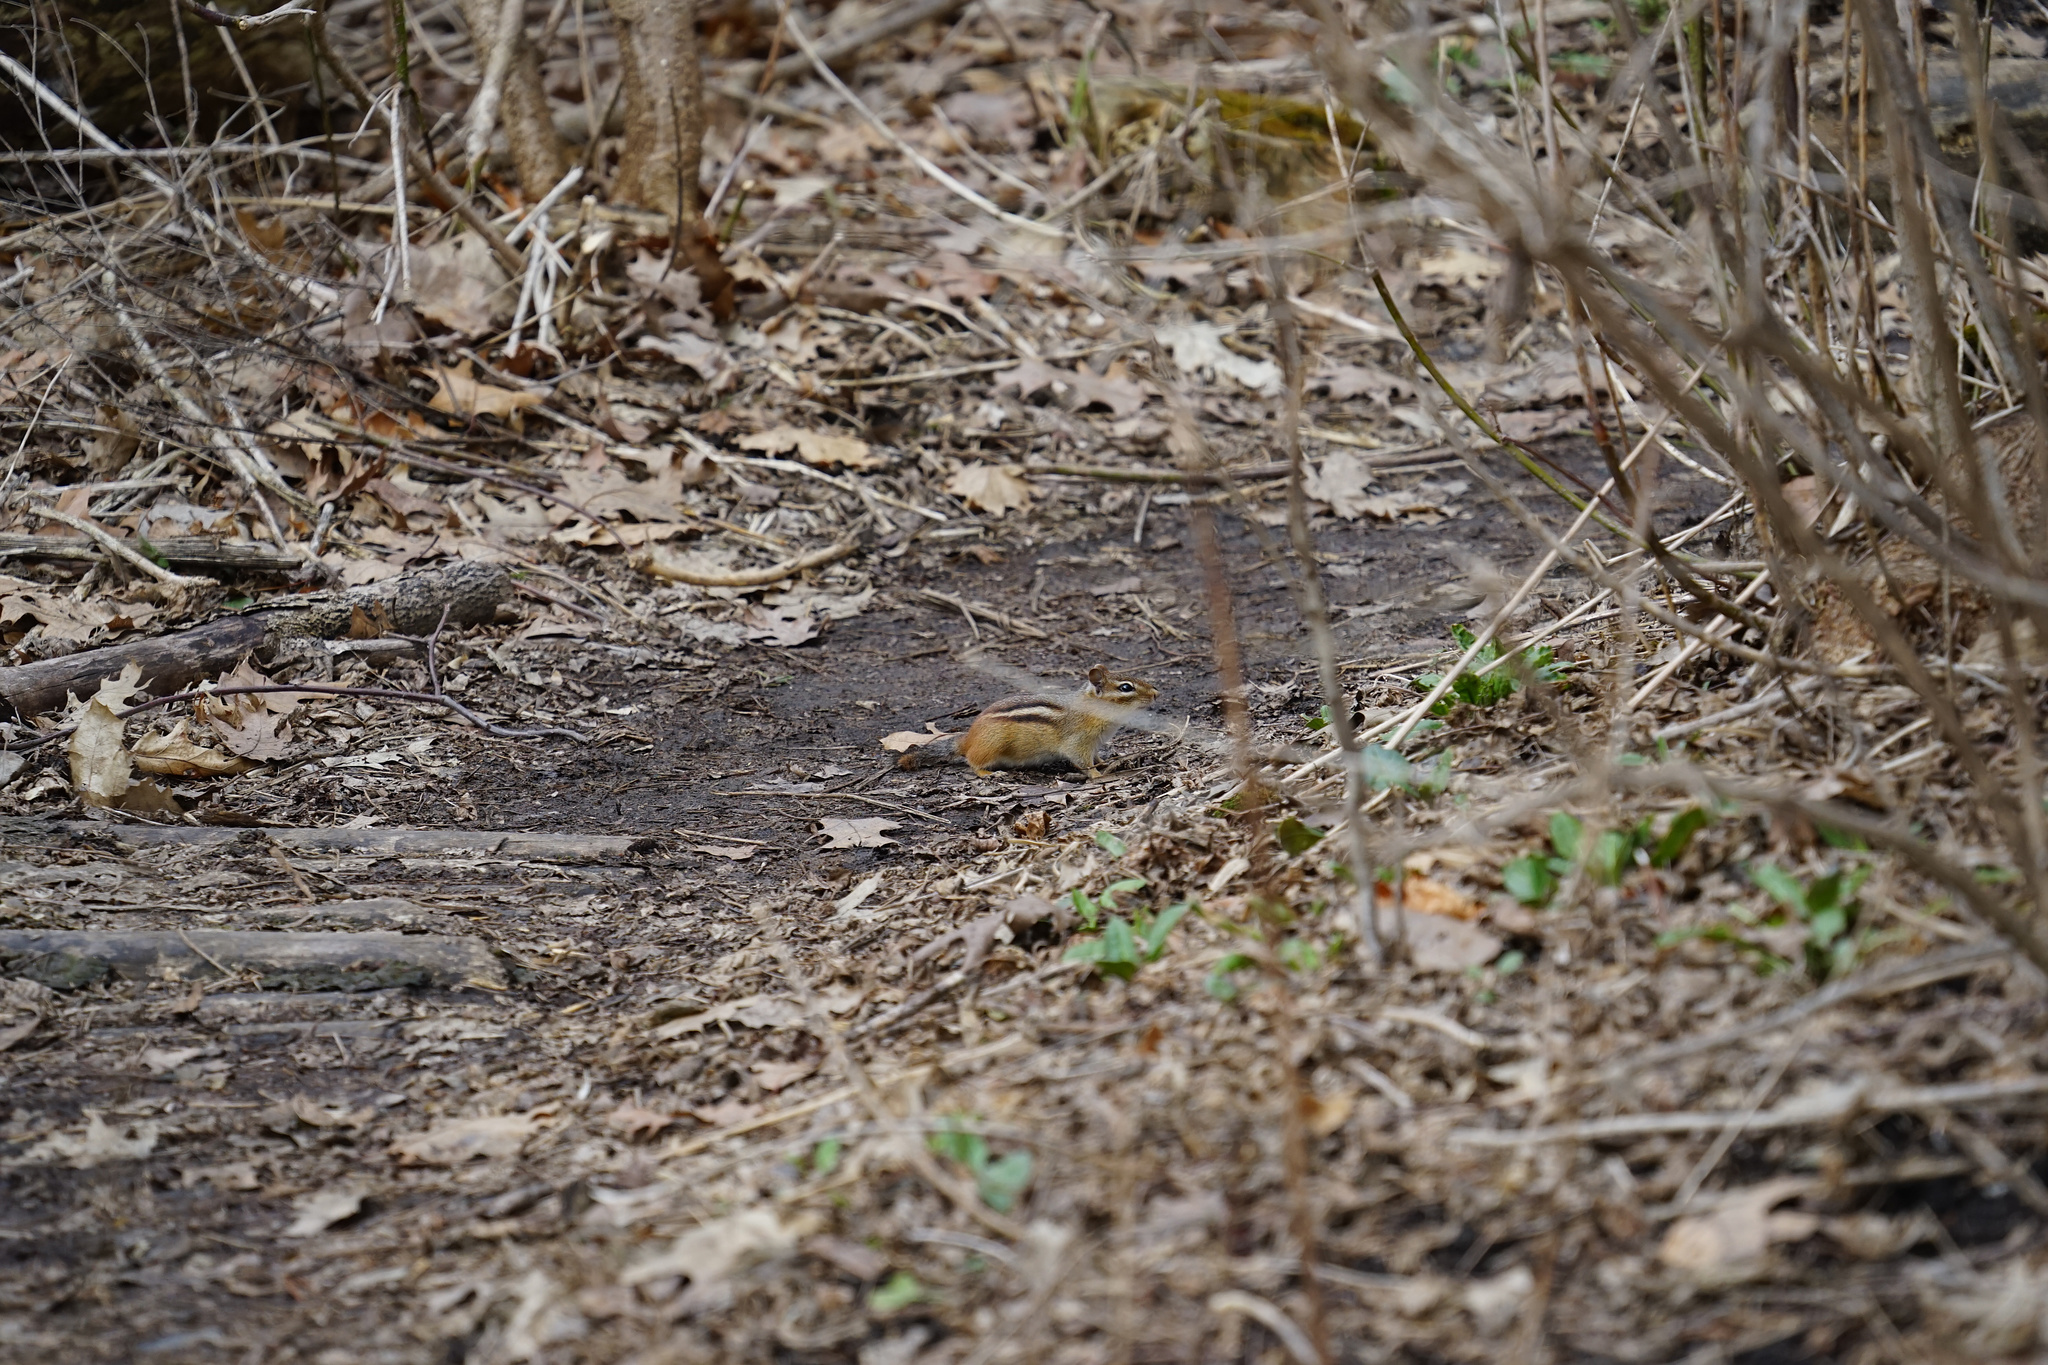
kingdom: Animalia
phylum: Chordata
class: Mammalia
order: Rodentia
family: Sciuridae
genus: Tamias
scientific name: Tamias striatus
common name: Eastern chipmunk
